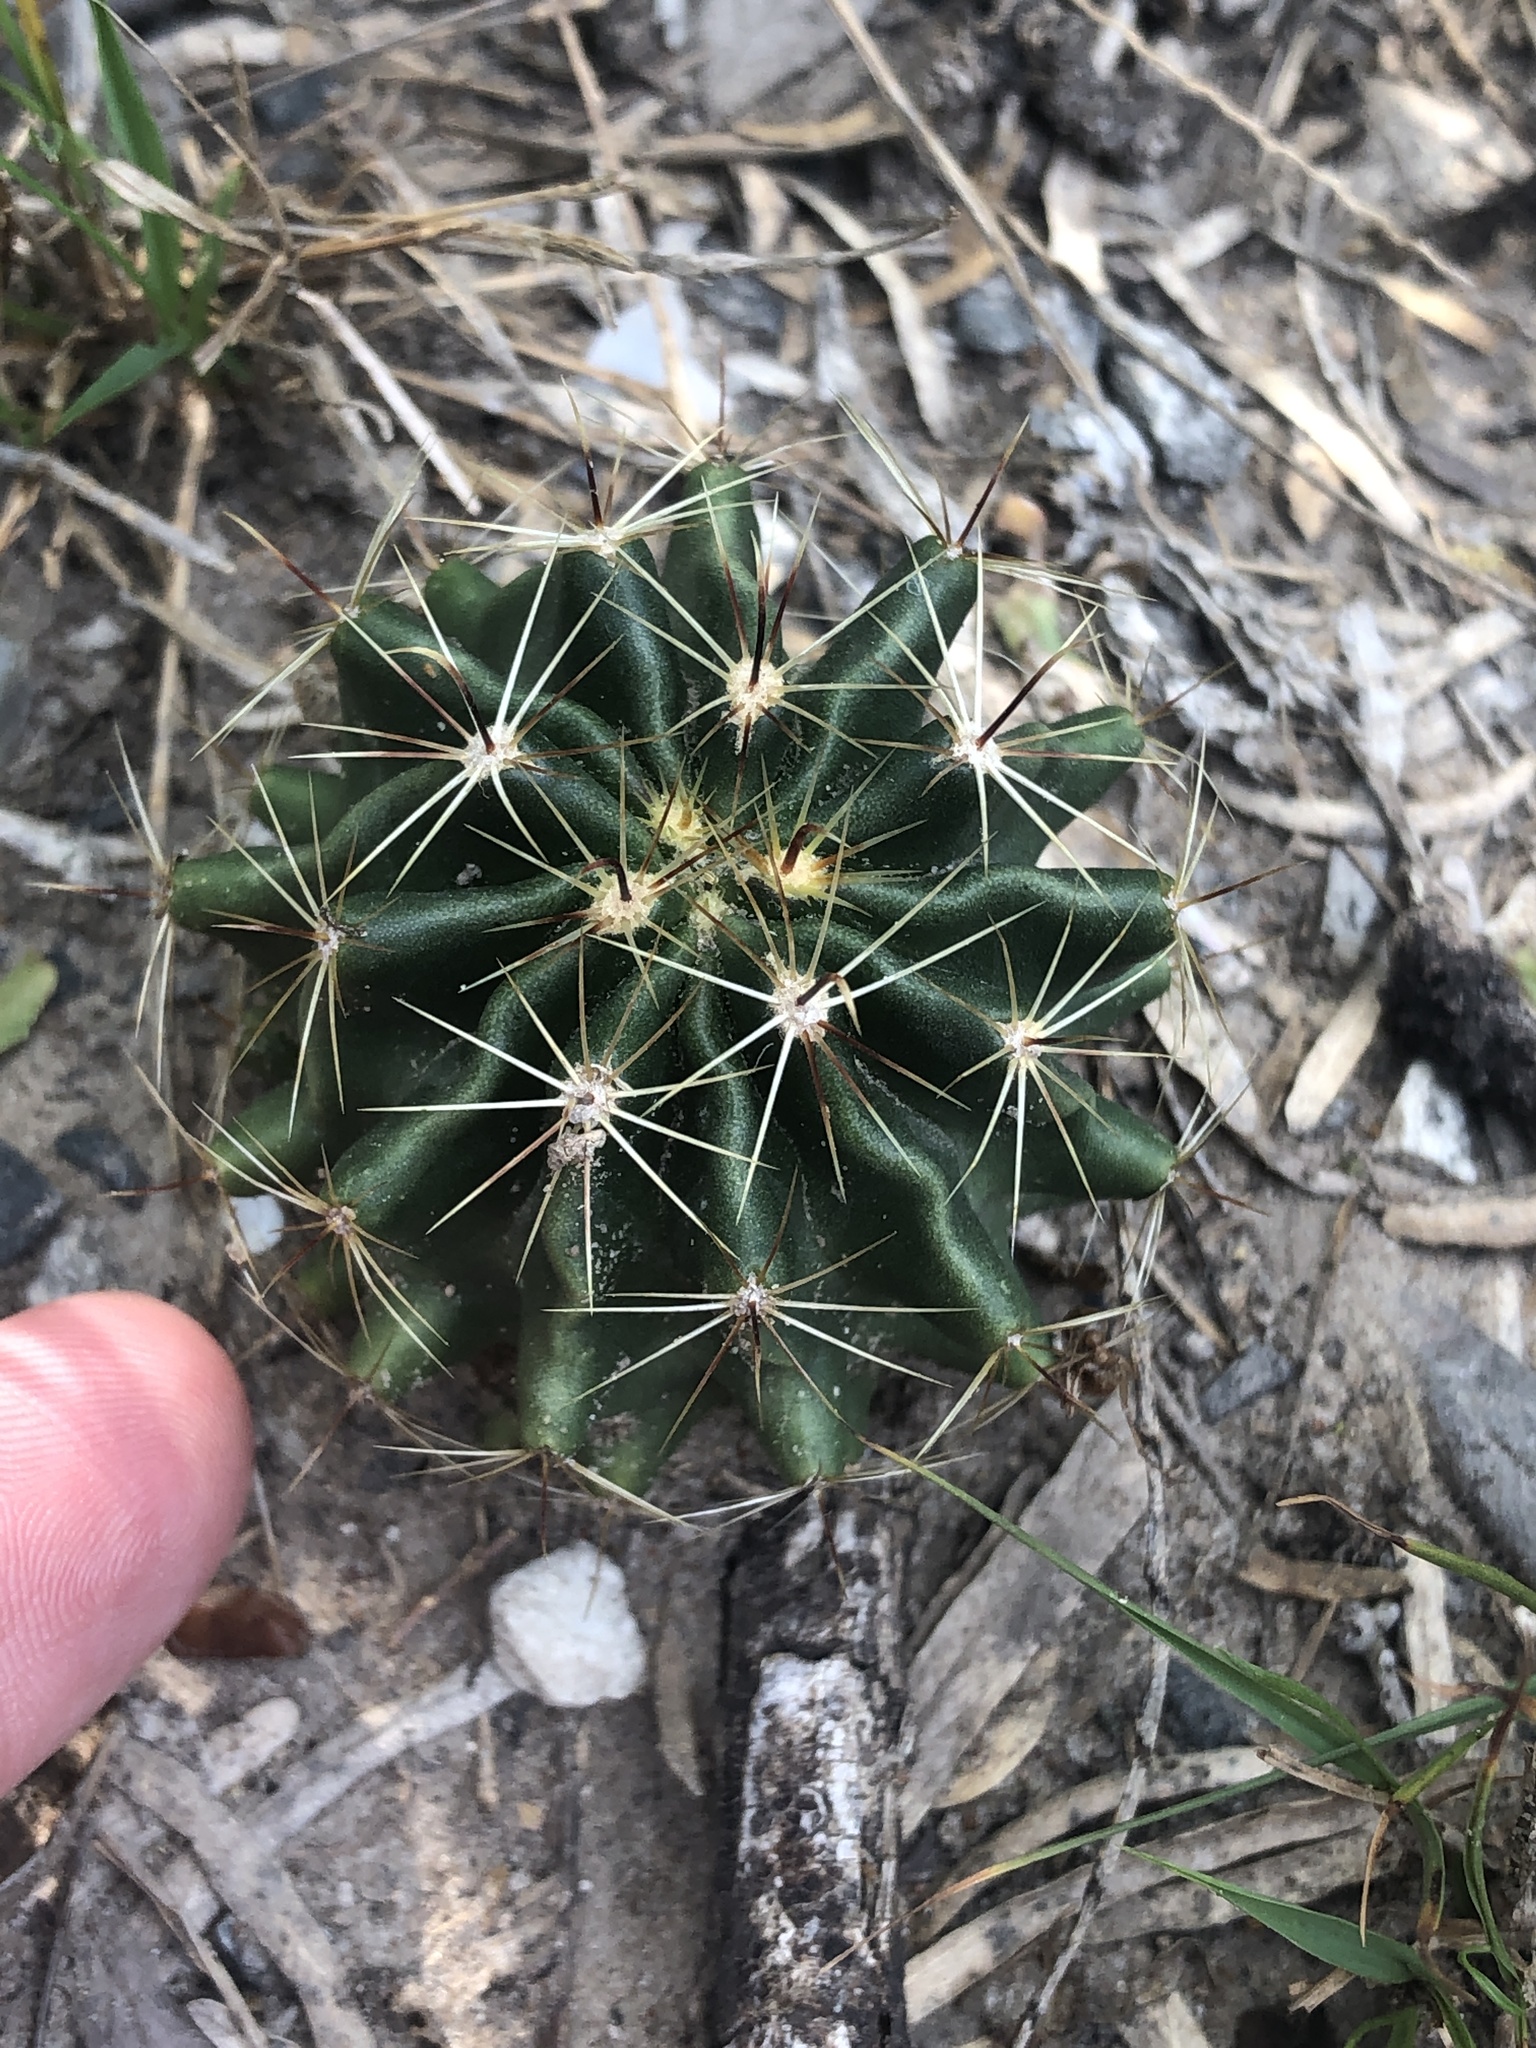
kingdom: Plantae
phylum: Tracheophyta
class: Magnoliopsida
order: Caryophyllales
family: Cactaceae
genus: Thelocactus
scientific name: Thelocactus setispinus
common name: Miniature barrel cactus
